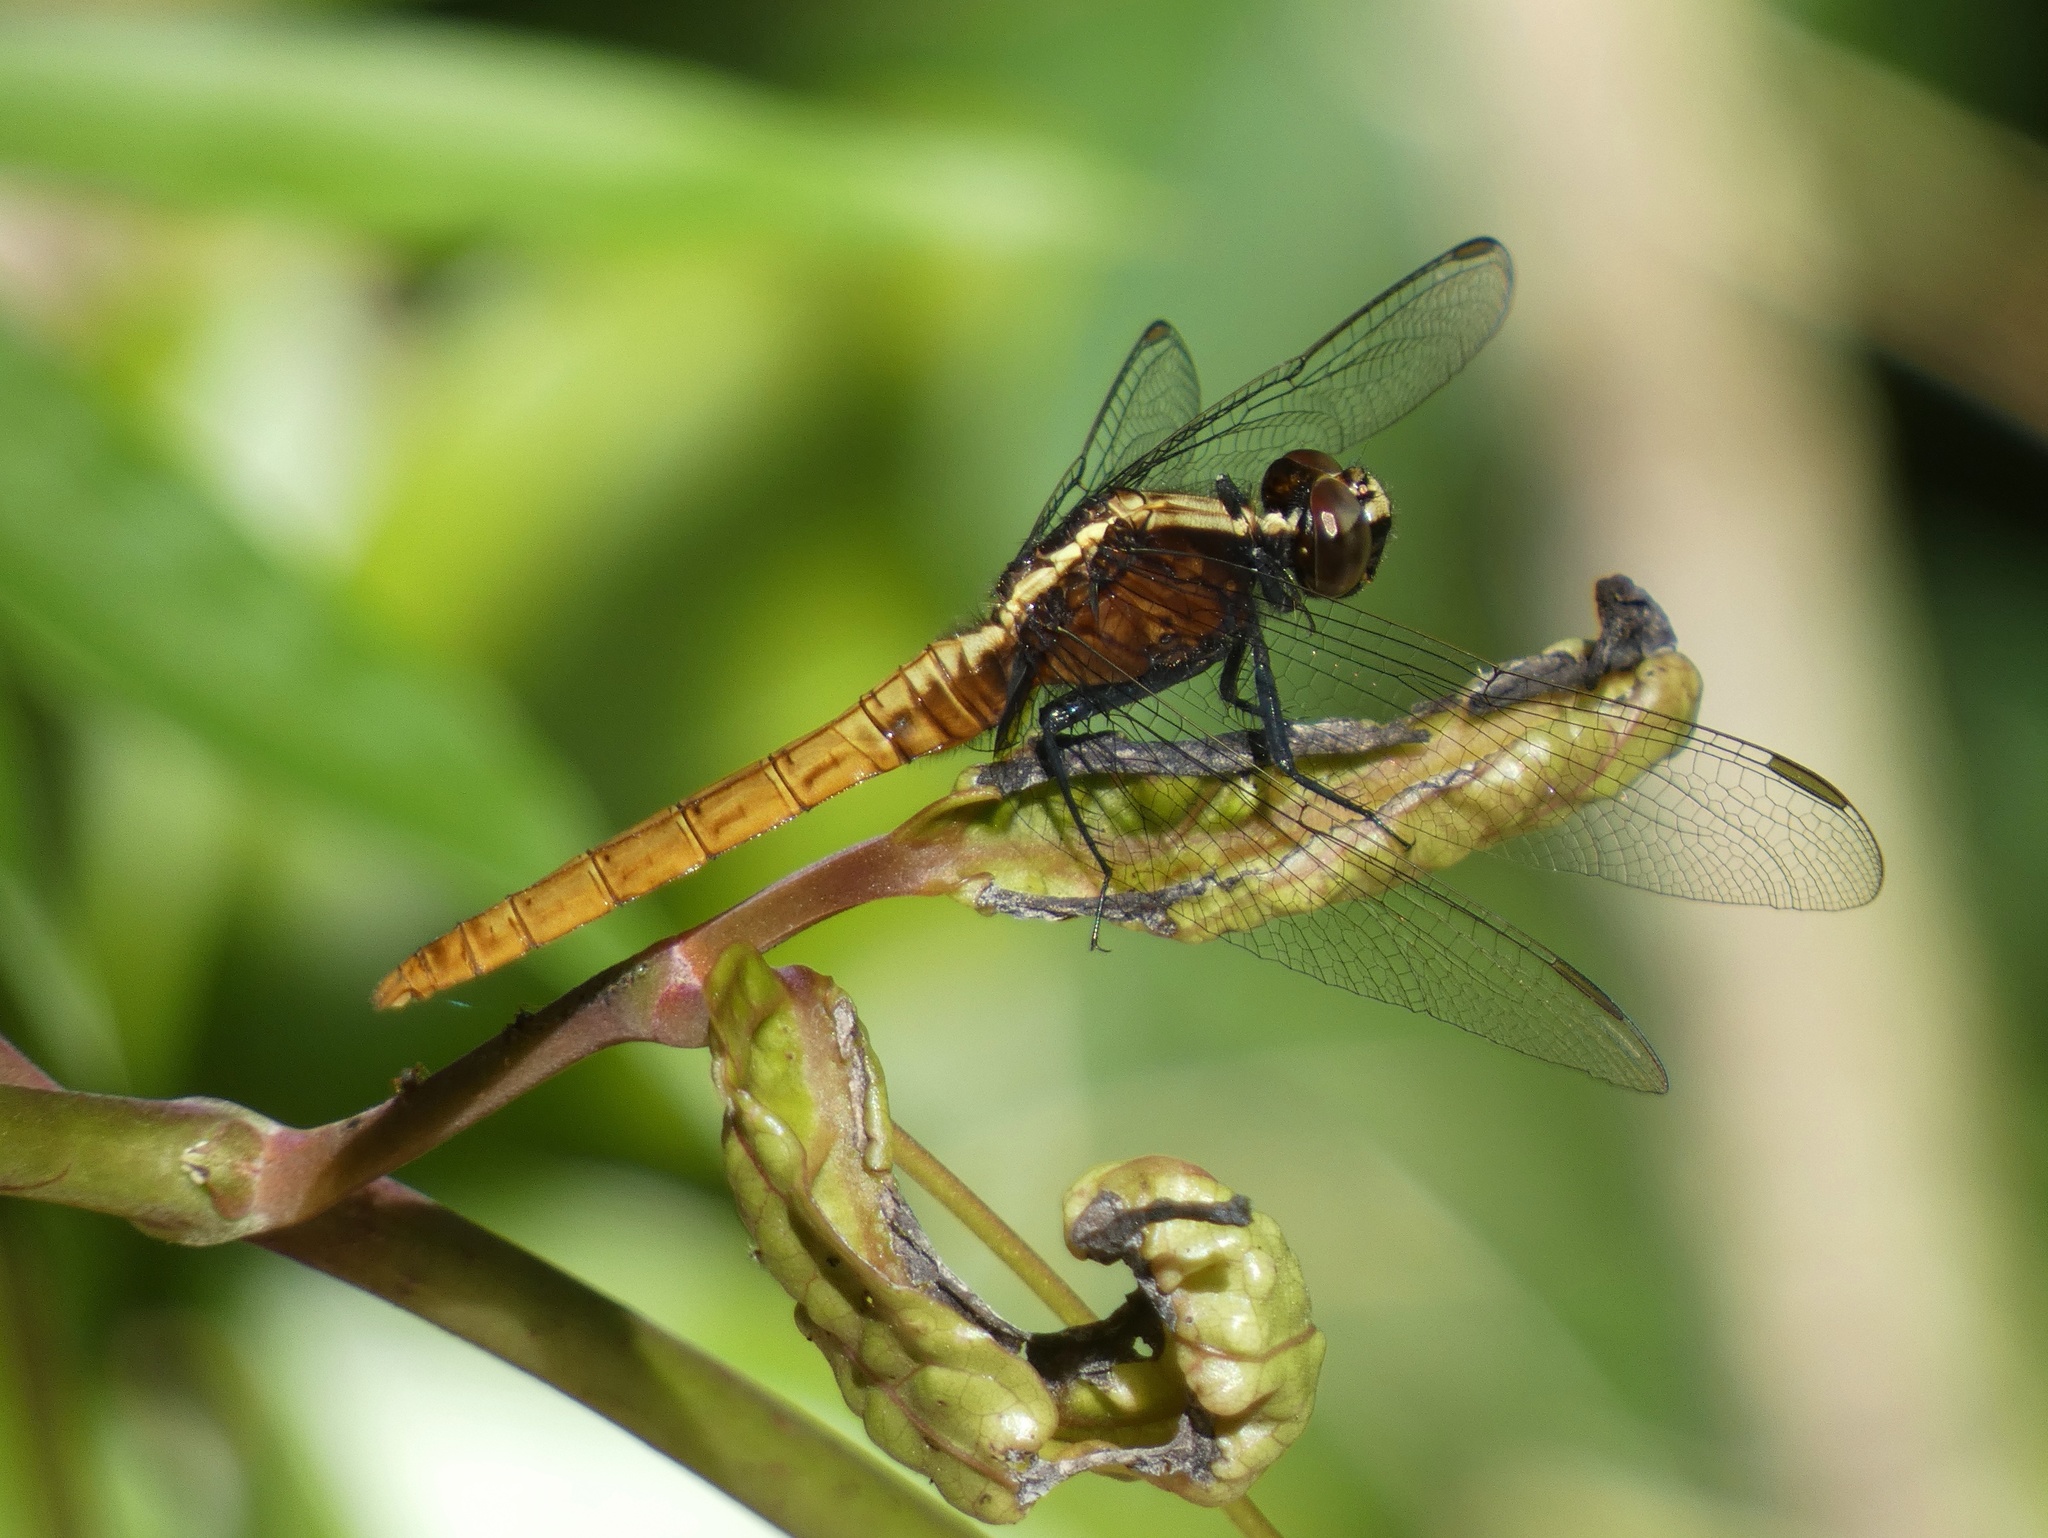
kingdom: Animalia
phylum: Arthropoda
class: Insecta
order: Odonata
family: Libellulidae
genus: Erythemis
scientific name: Erythemis peruviana
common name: Flame-tailed pondhawk
